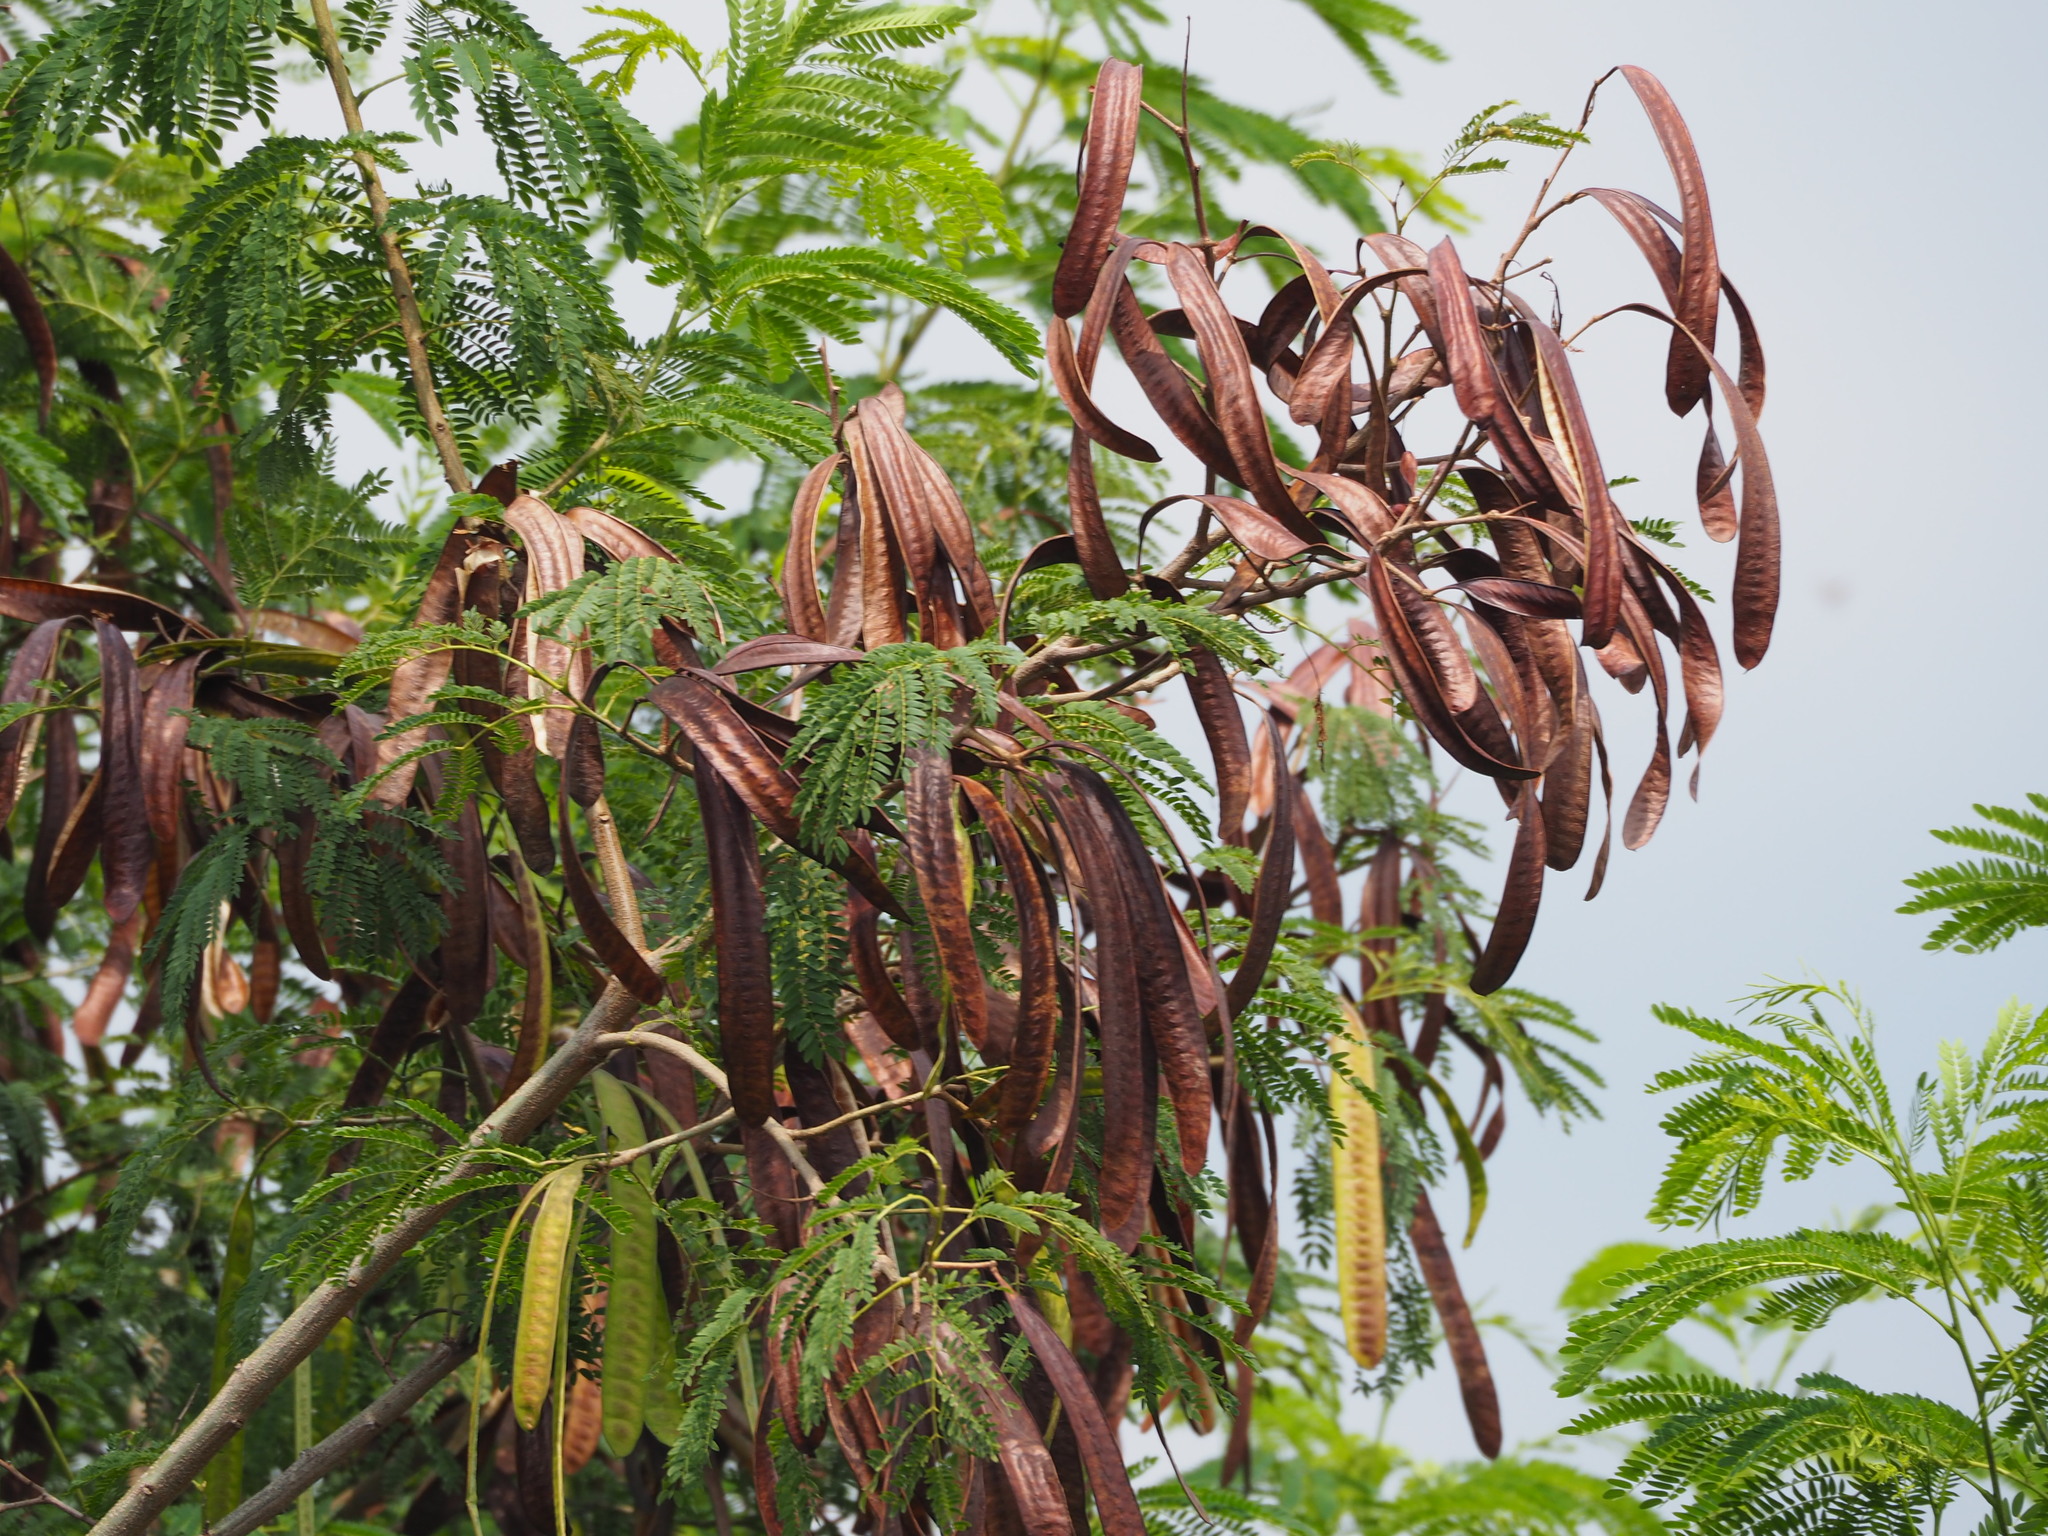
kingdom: Plantae
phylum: Tracheophyta
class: Magnoliopsida
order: Fabales
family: Fabaceae
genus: Leucaena
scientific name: Leucaena leucocephala
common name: White leadtree
